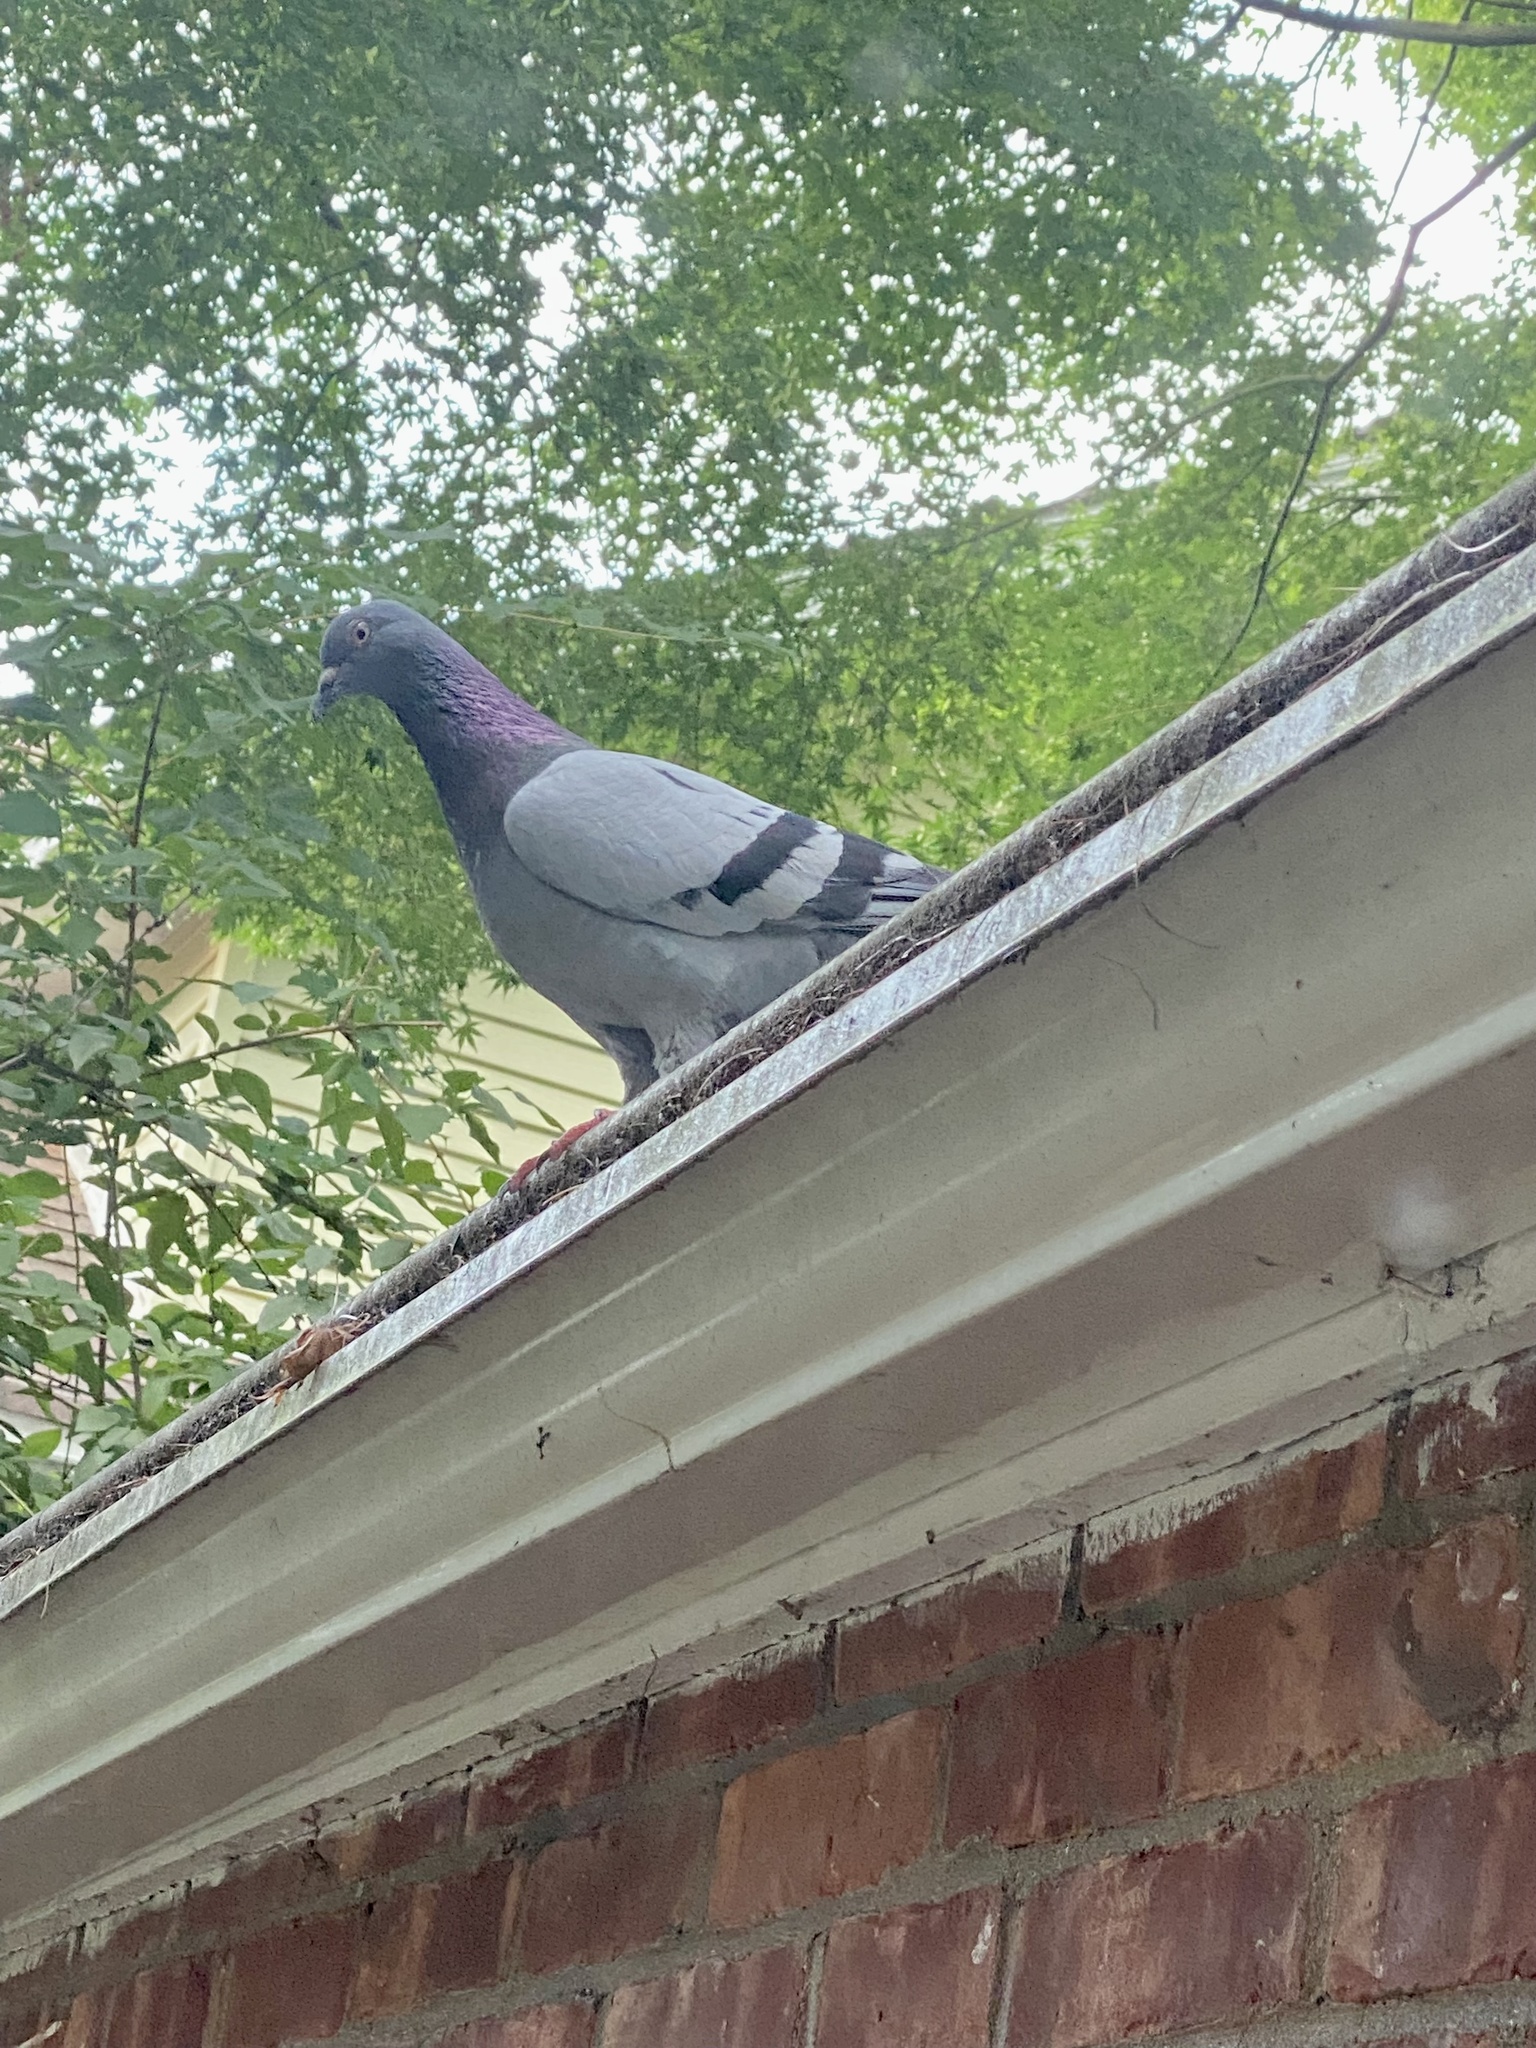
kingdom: Animalia
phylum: Chordata
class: Aves
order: Columbiformes
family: Columbidae
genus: Columba
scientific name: Columba livia
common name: Rock pigeon
